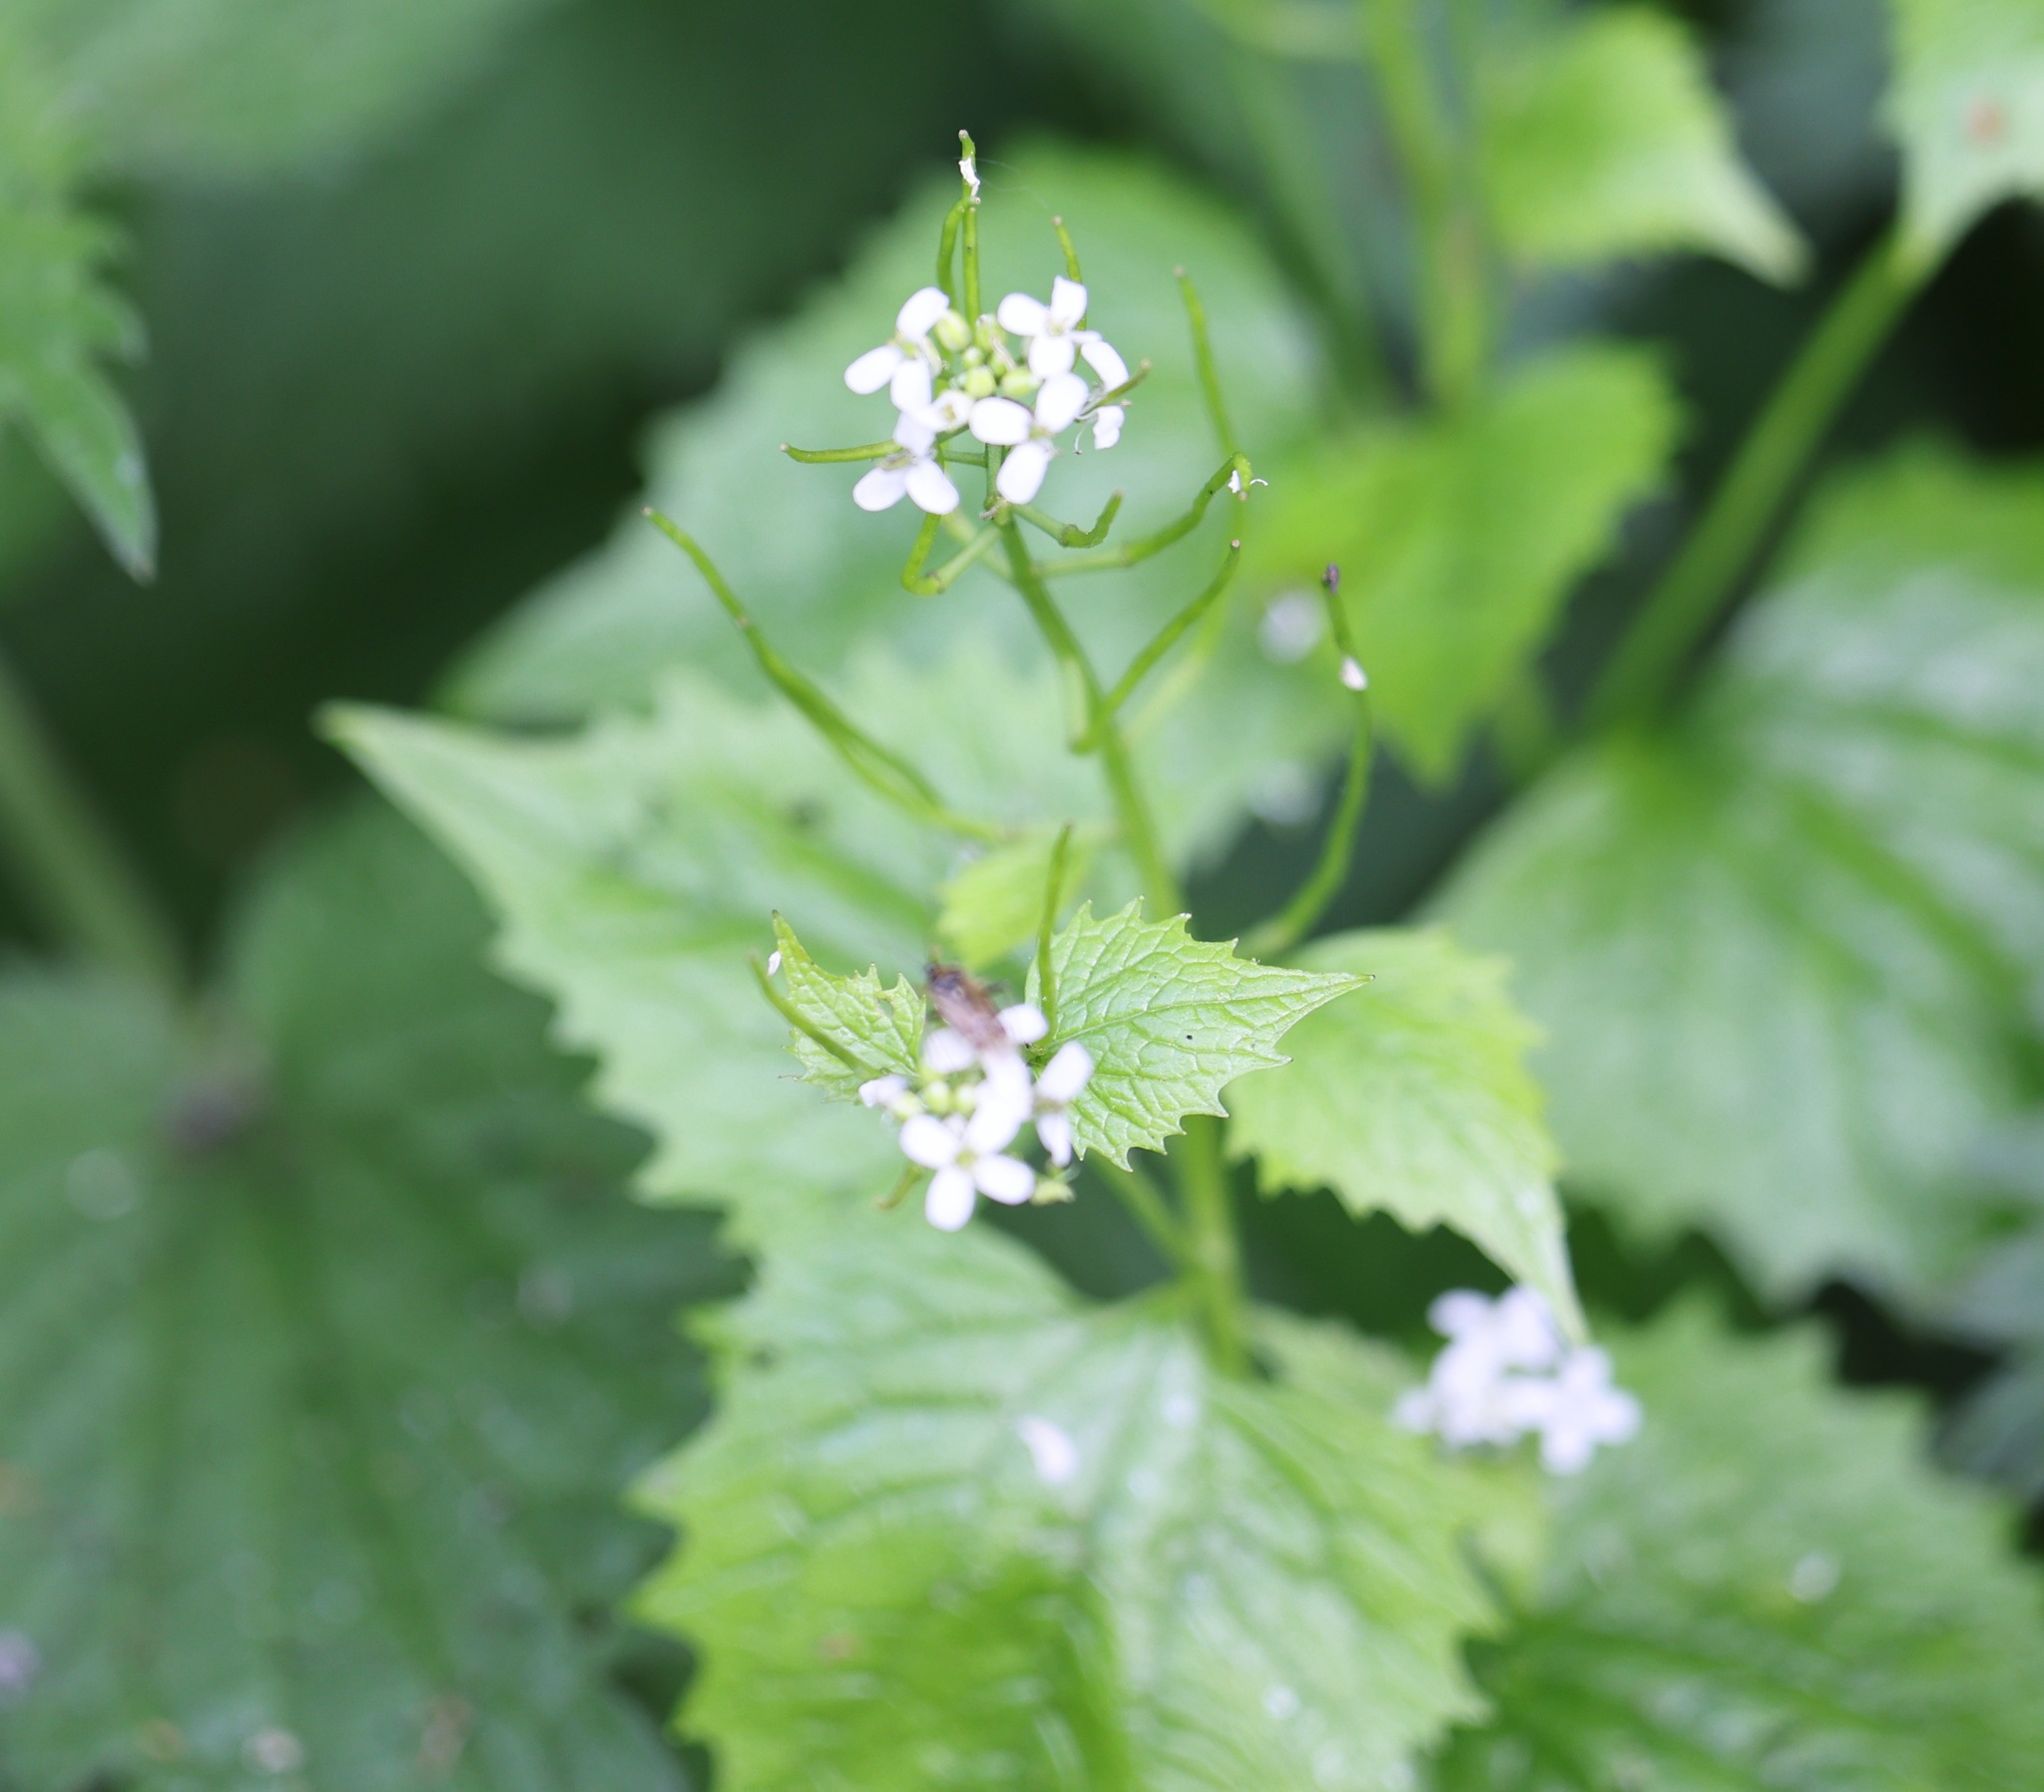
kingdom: Plantae
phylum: Tracheophyta
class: Magnoliopsida
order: Brassicales
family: Brassicaceae
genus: Alliaria
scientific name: Alliaria petiolata
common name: Garlic mustard
